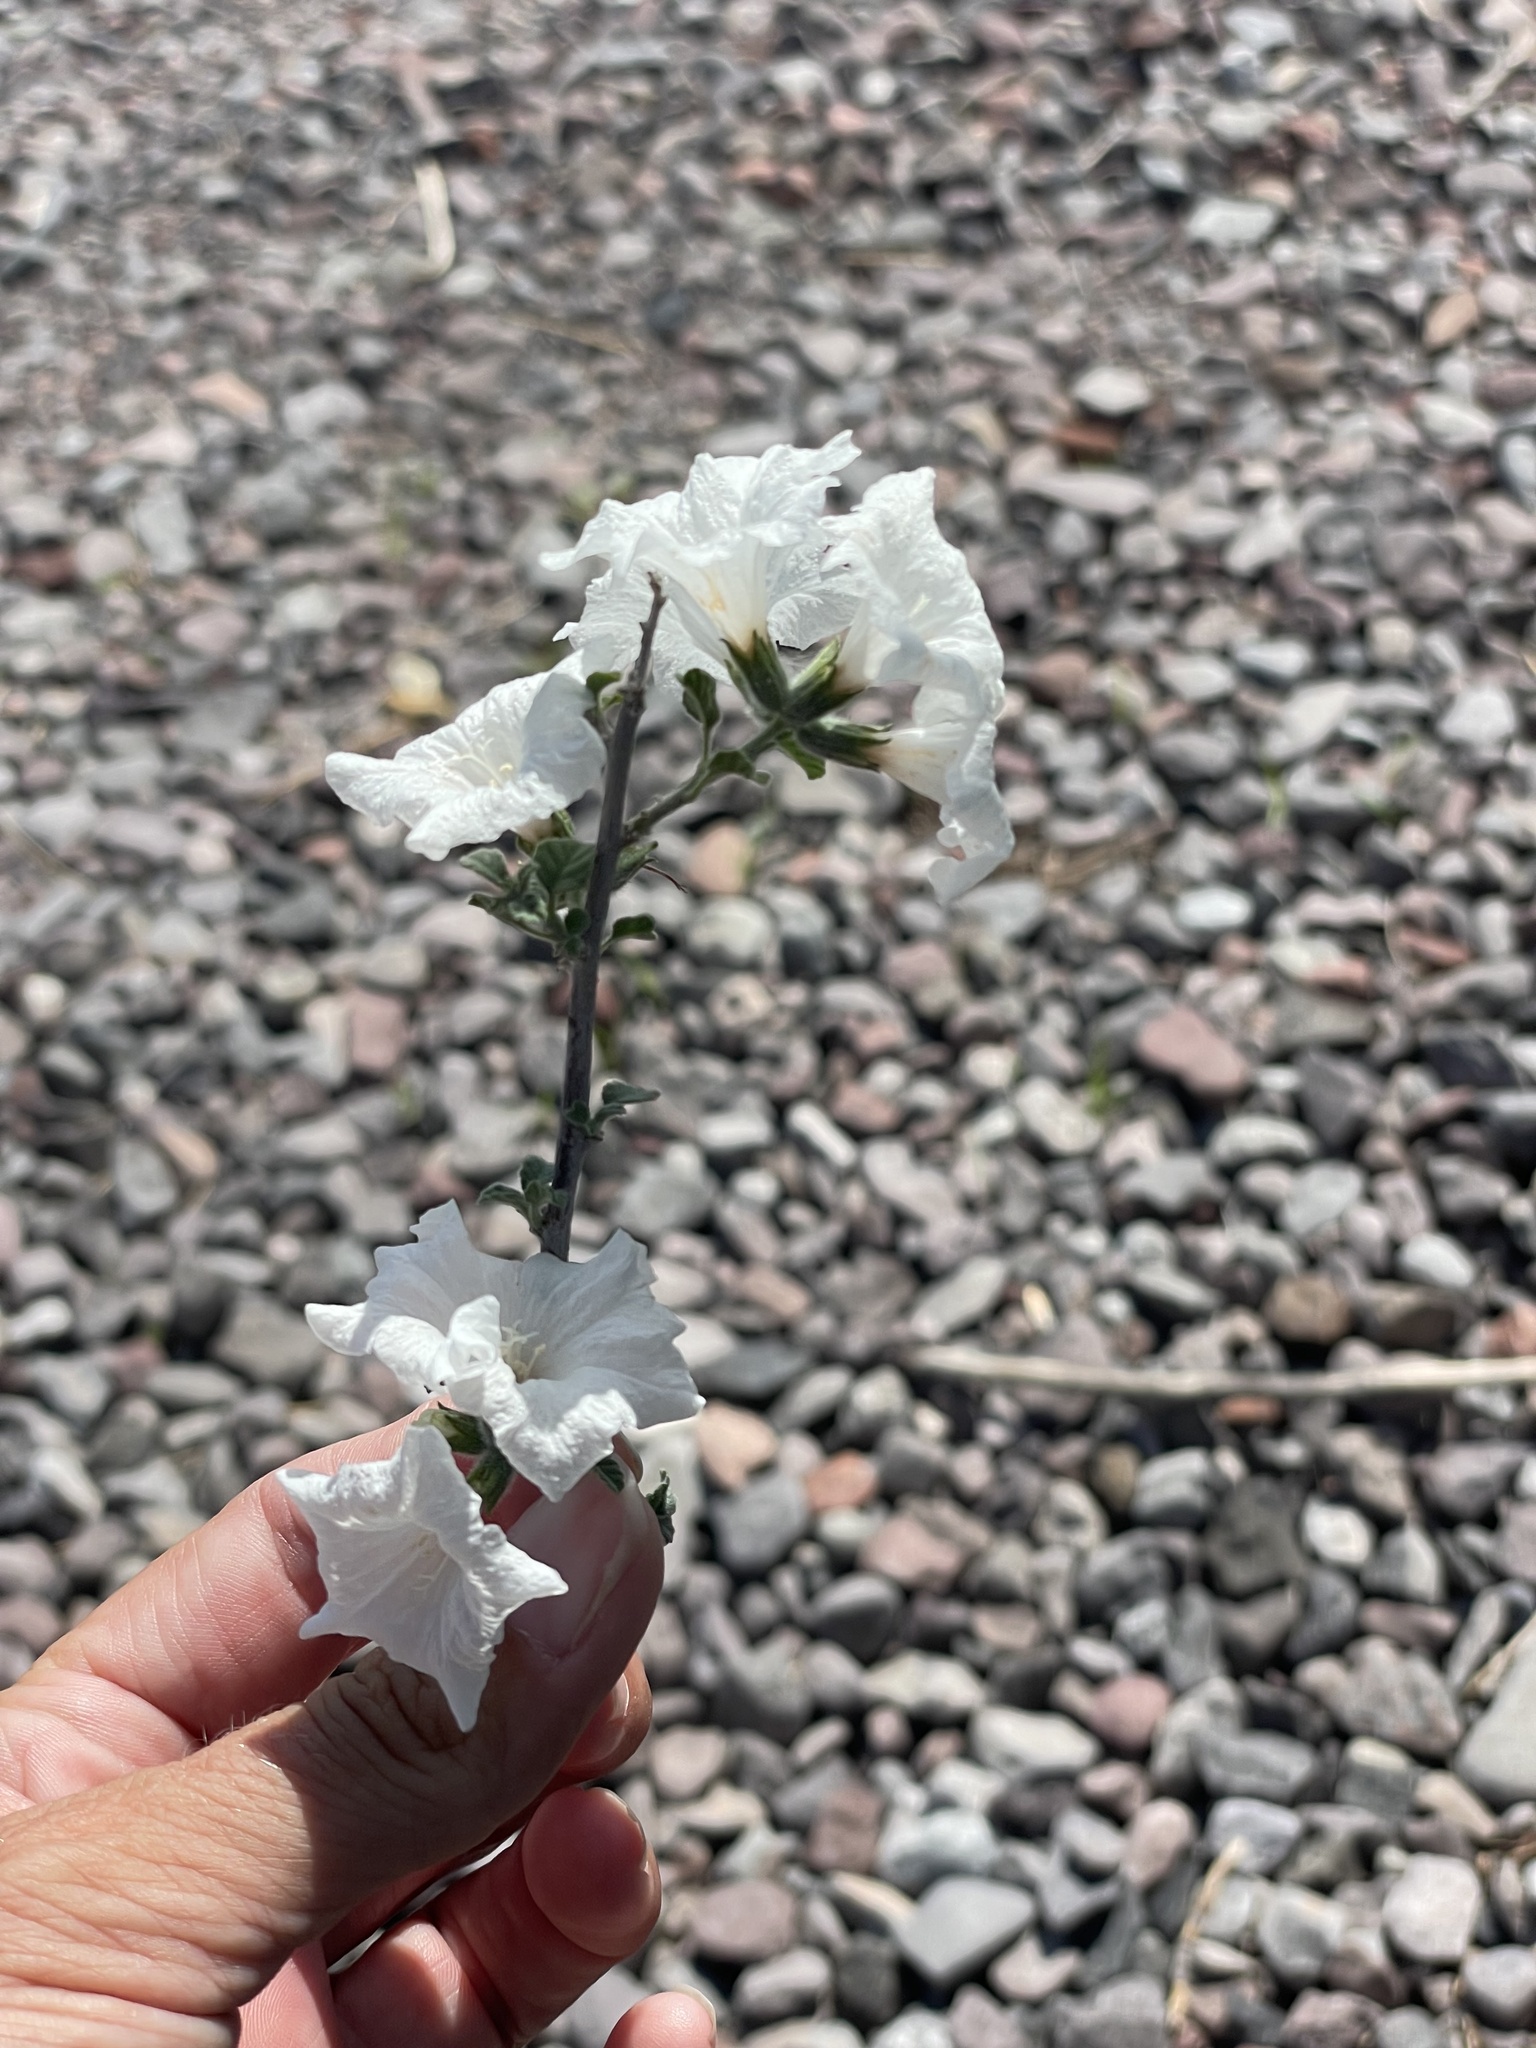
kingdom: Plantae
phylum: Tracheophyta
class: Magnoliopsida
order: Boraginales
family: Cordiaceae
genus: Cordia
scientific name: Cordia parvifolia
